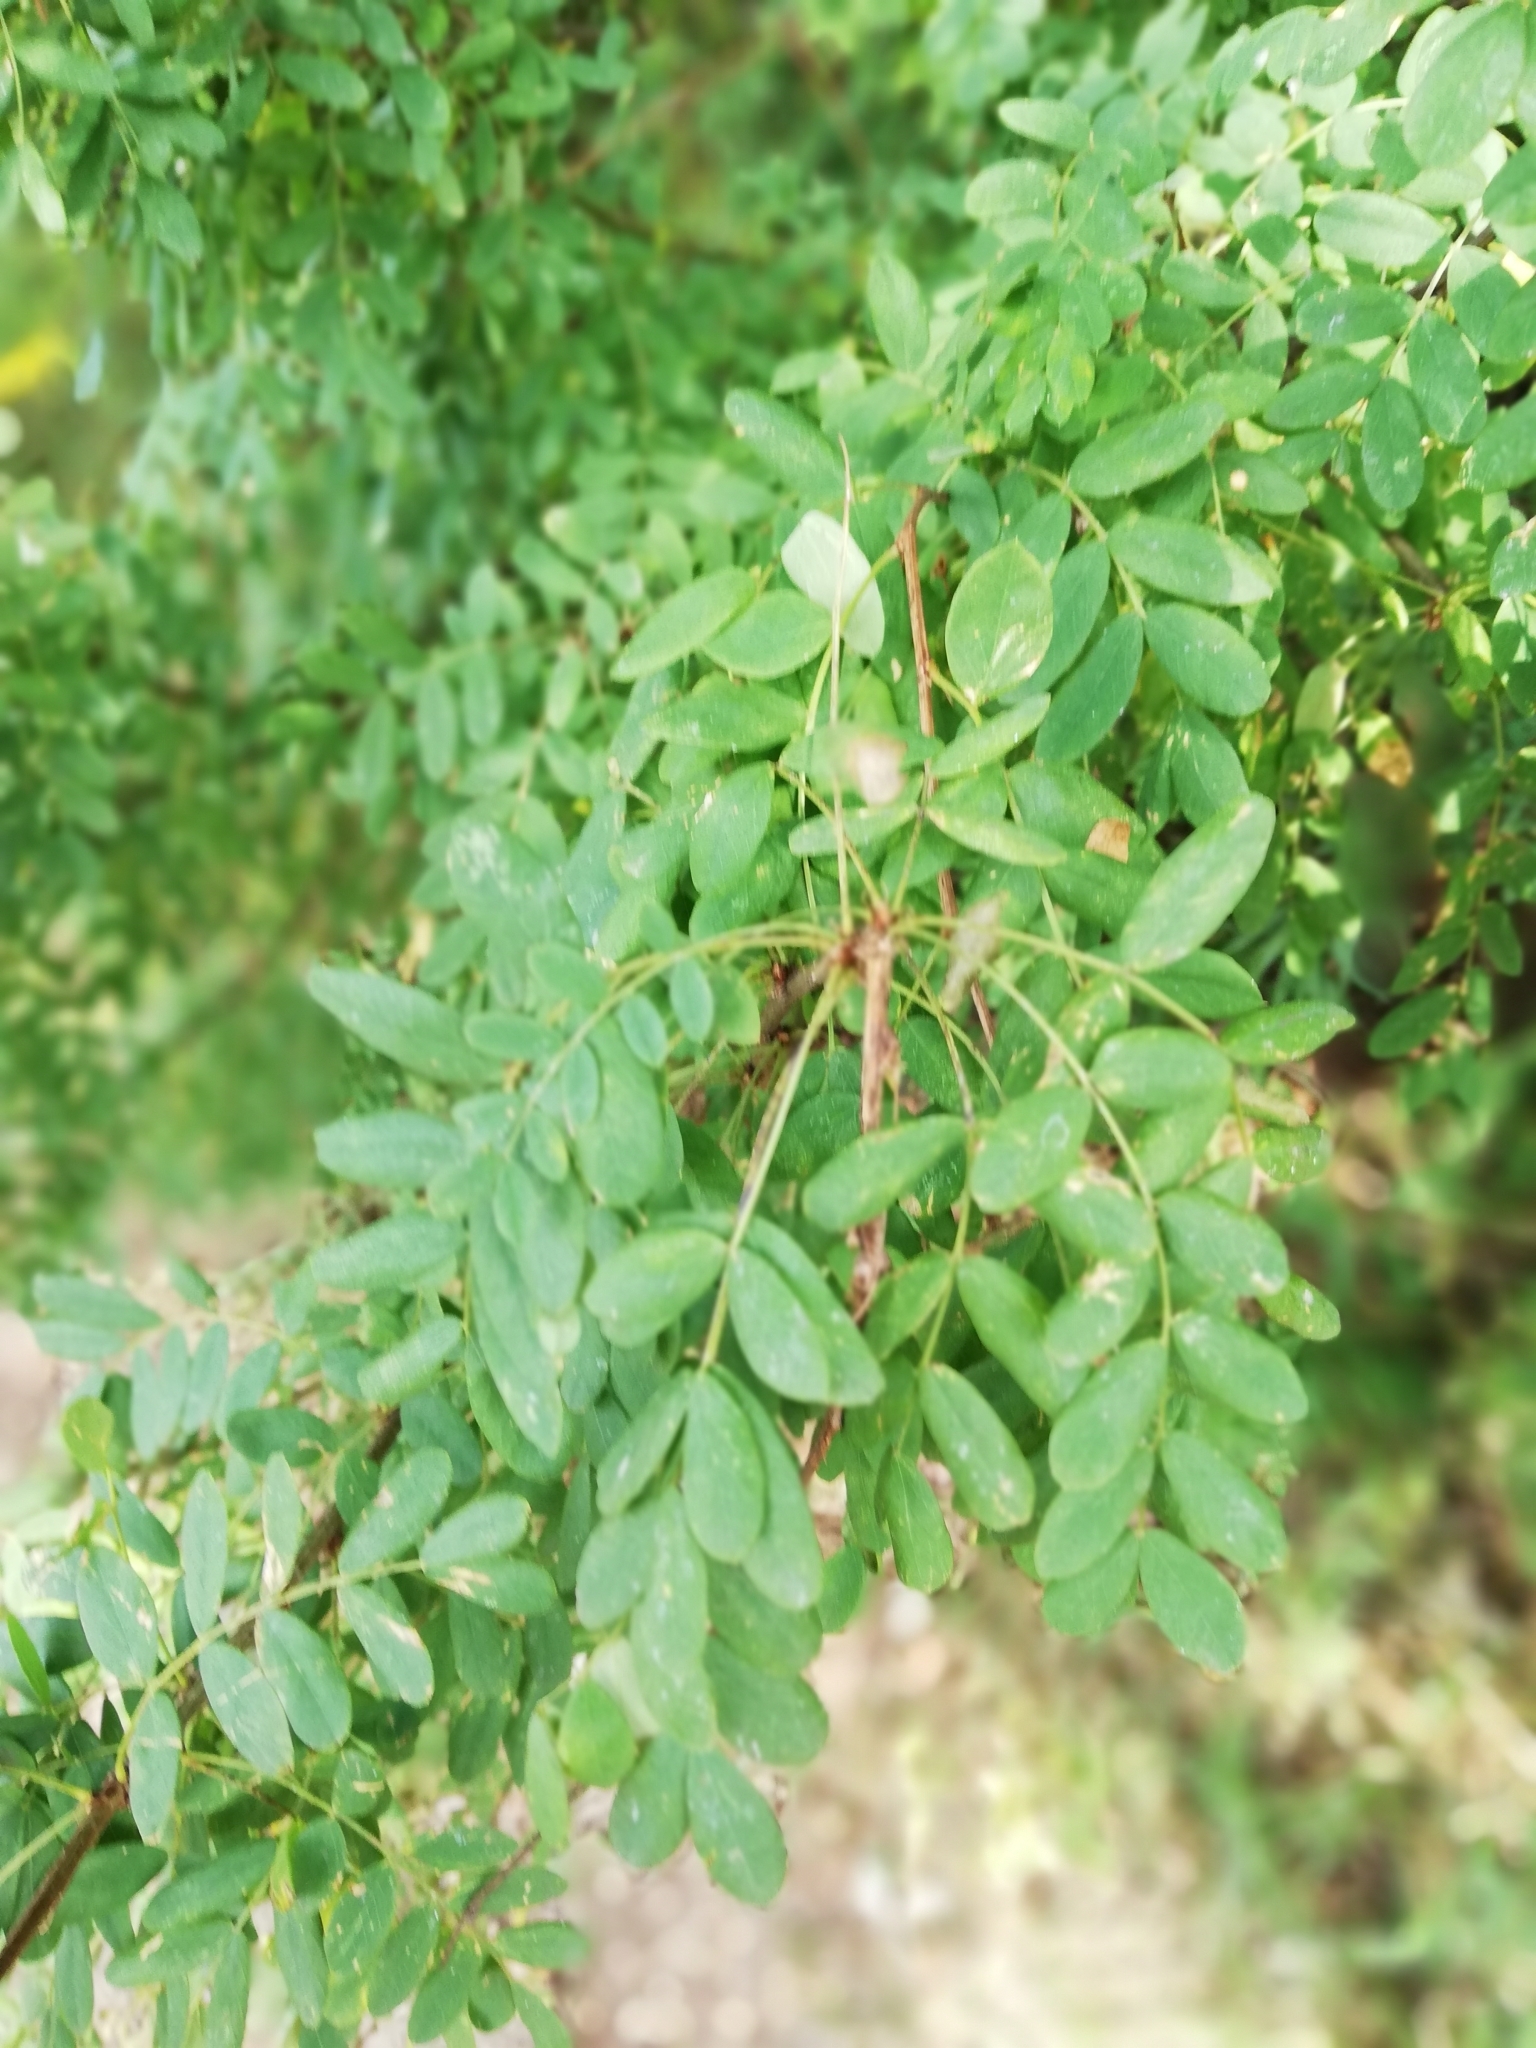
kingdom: Plantae
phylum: Tracheophyta
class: Magnoliopsida
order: Fabales
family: Fabaceae
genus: Caragana
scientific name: Caragana arborescens
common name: Siberian peashrub
